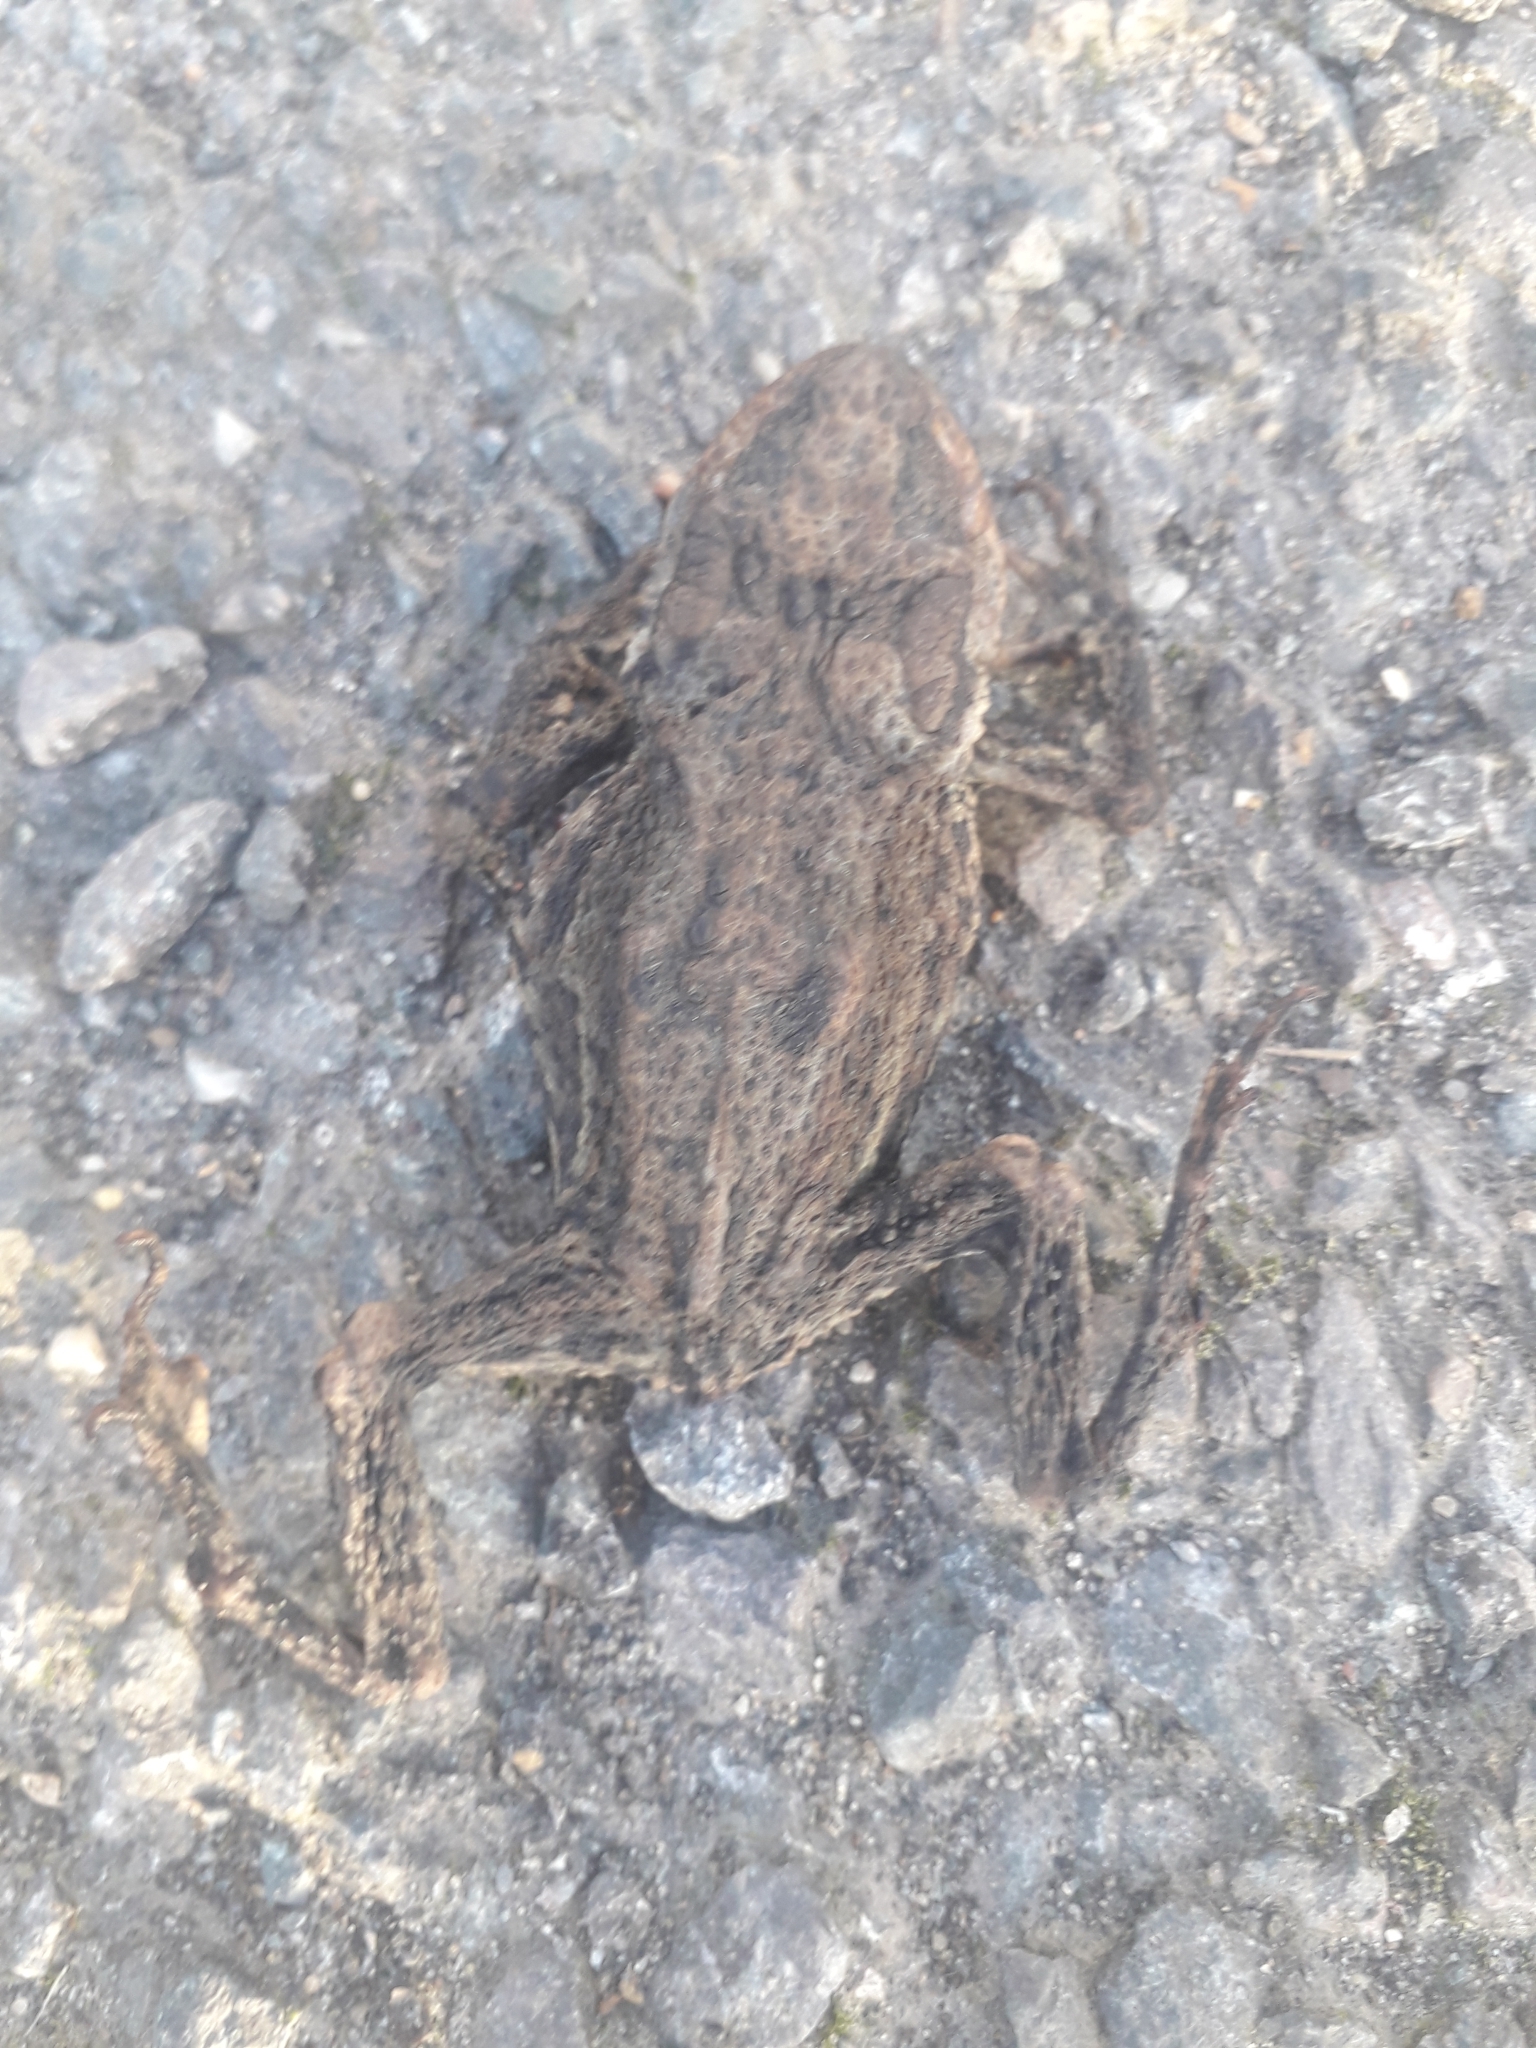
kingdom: Animalia
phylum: Chordata
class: Amphibia
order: Anura
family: Bufonidae
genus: Bufo
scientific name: Bufo bufo
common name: Common toad
